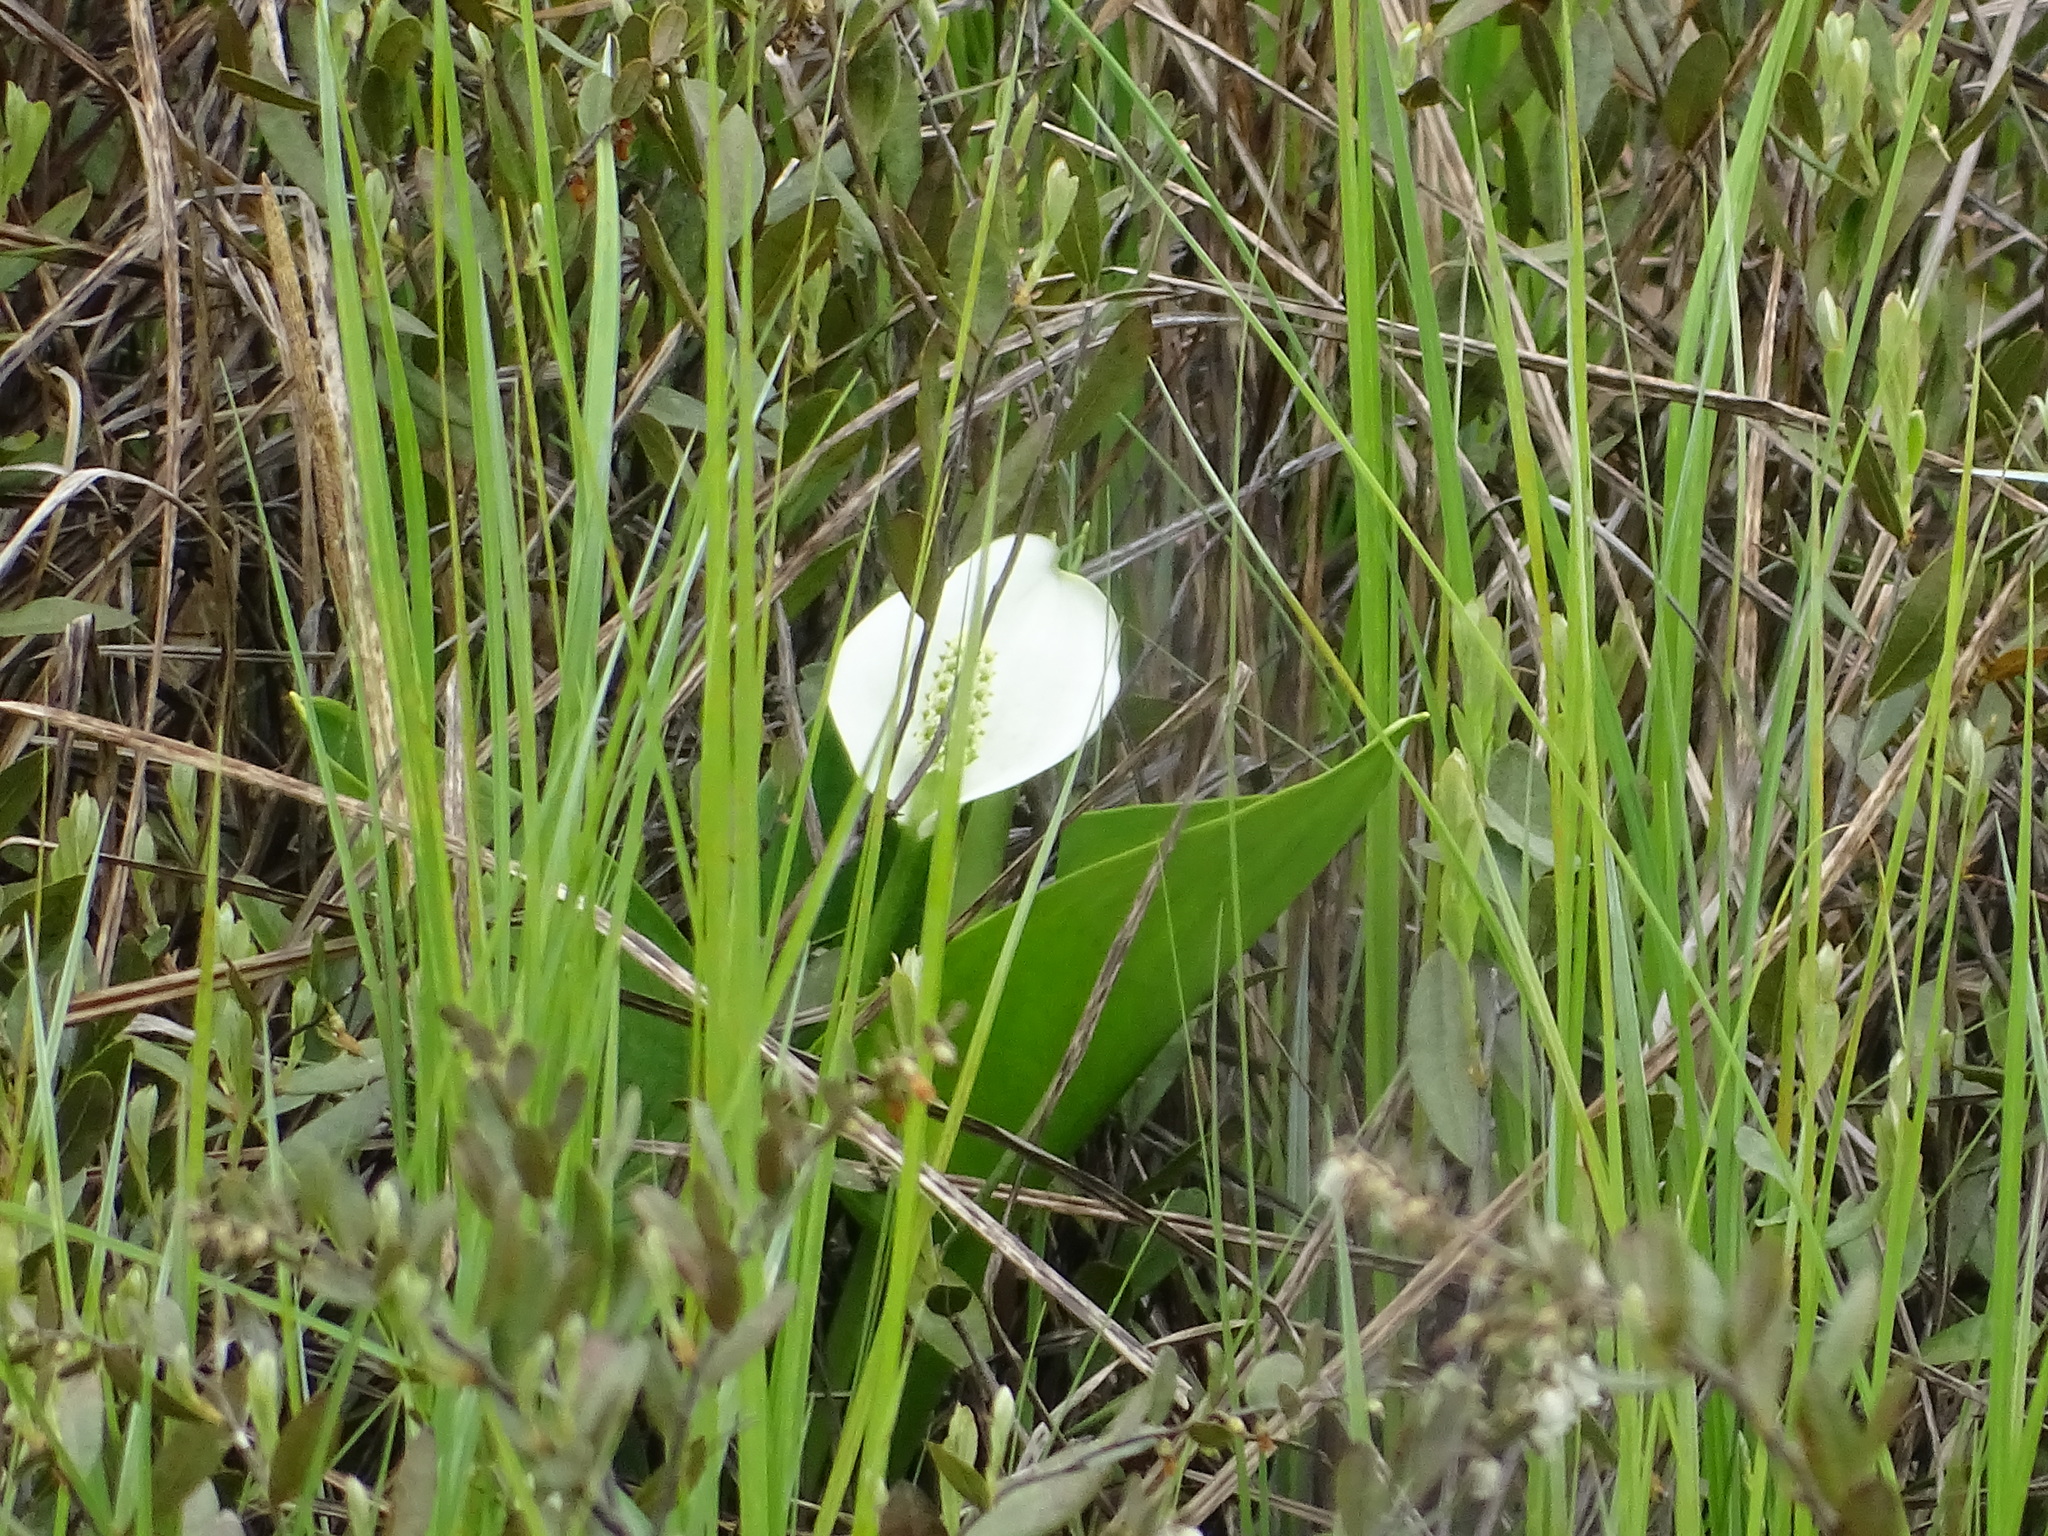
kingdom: Plantae
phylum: Tracheophyta
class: Liliopsida
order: Alismatales
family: Araceae
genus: Calla
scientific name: Calla palustris
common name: Bog arum
